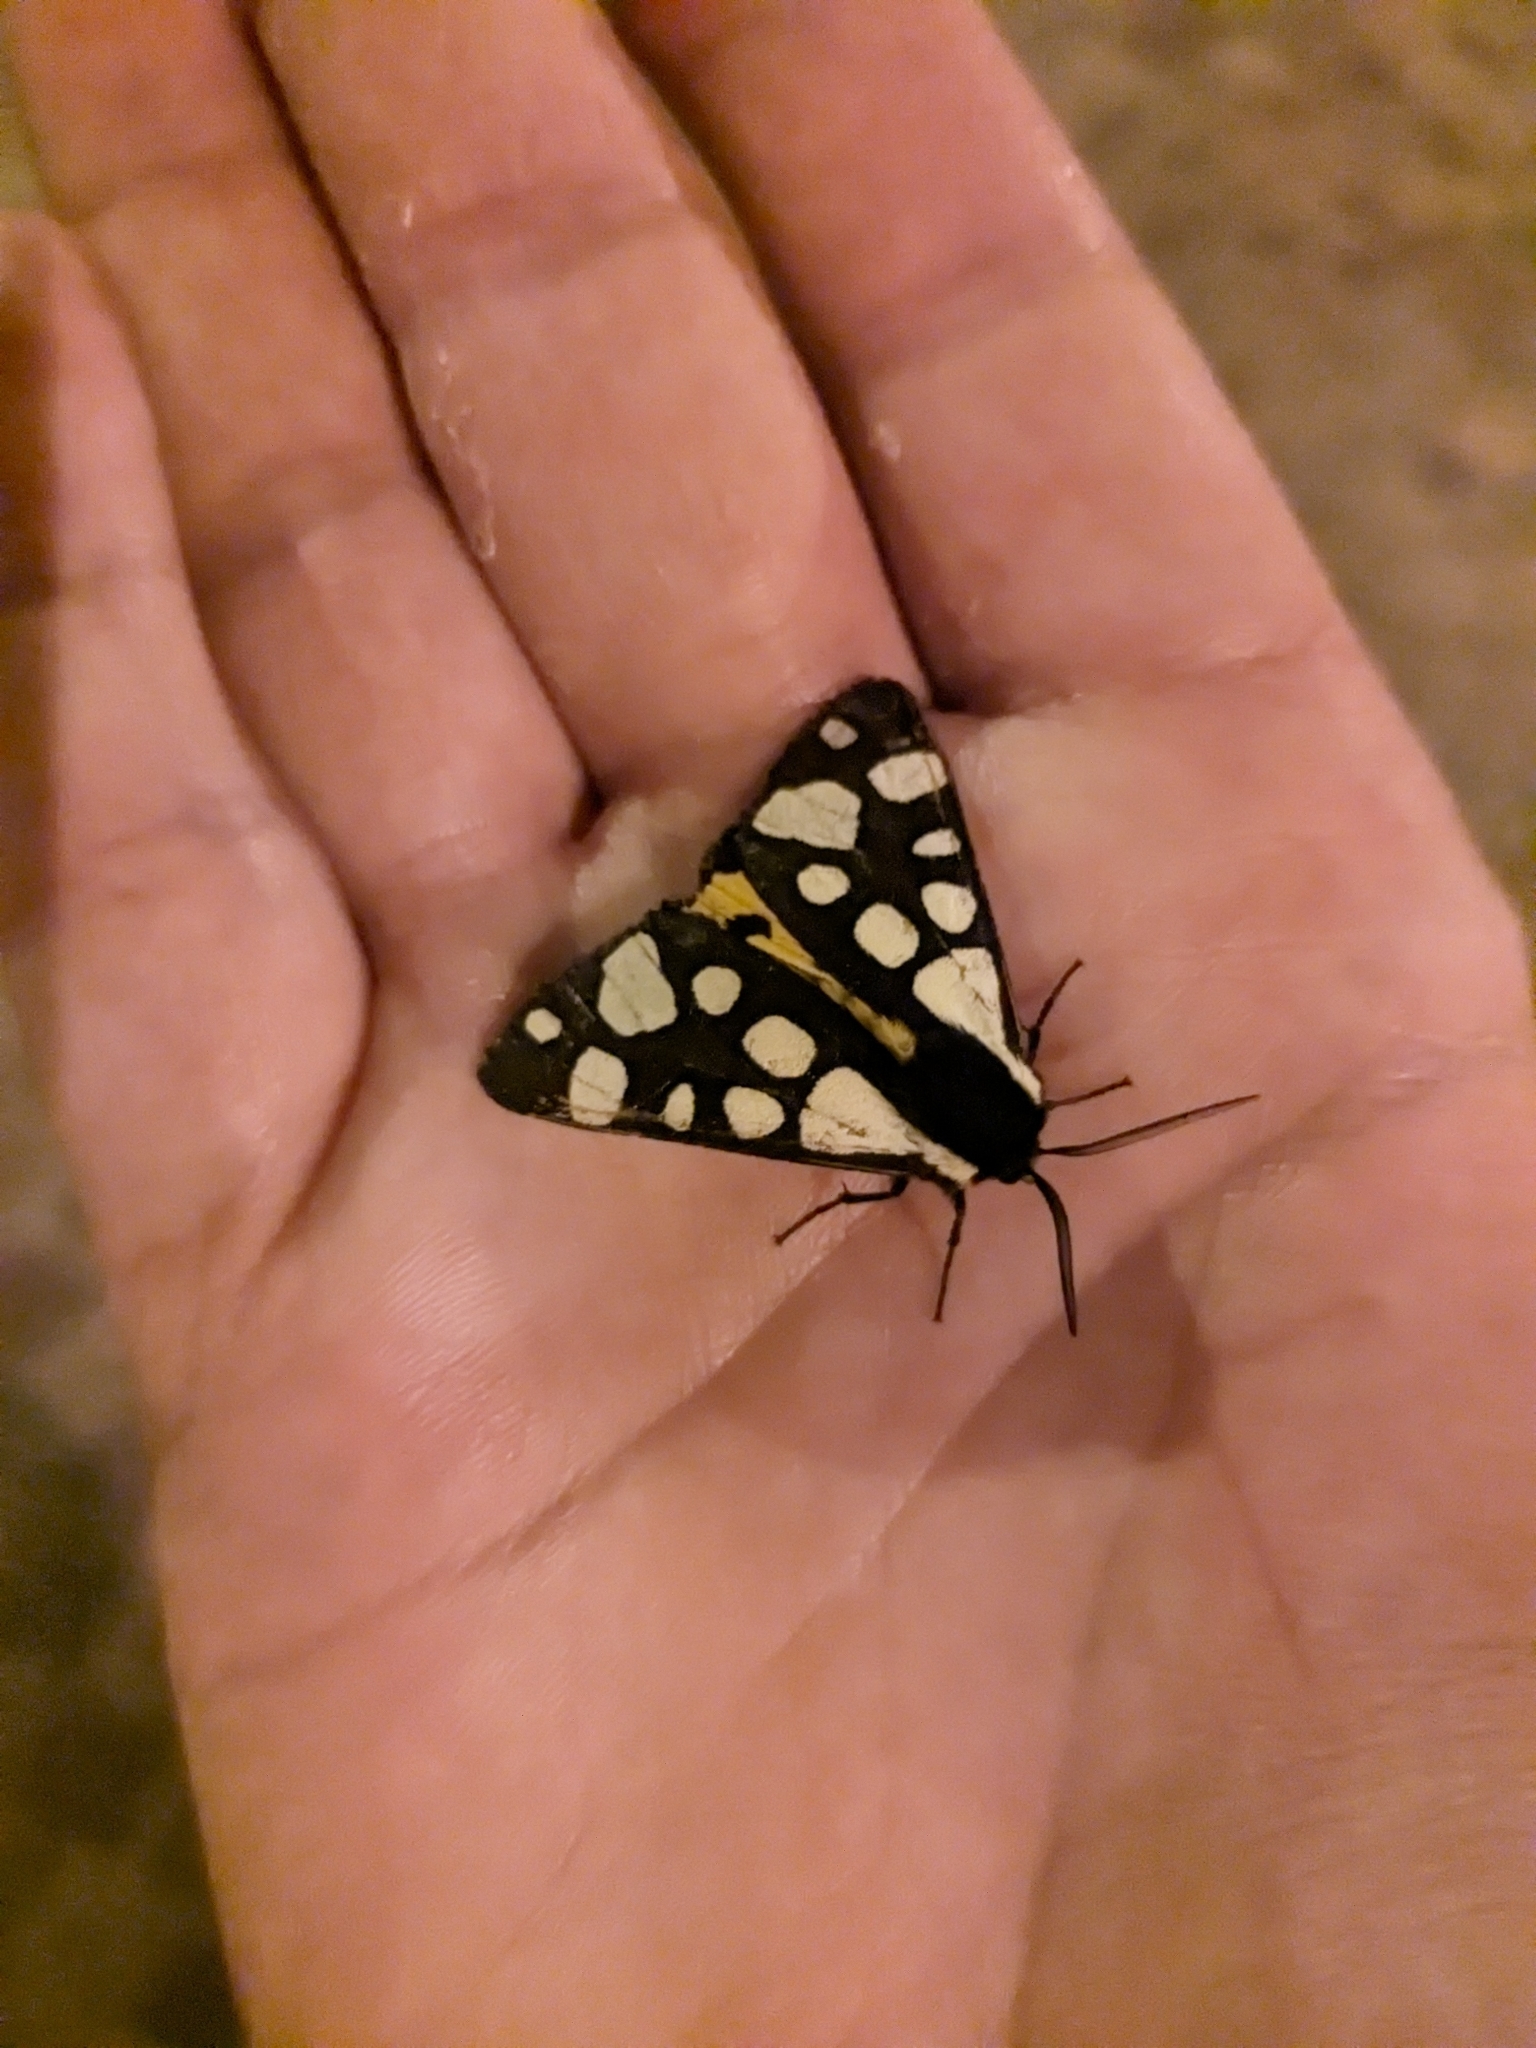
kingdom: Animalia
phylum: Arthropoda
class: Insecta
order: Lepidoptera
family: Erebidae
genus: Epicallia
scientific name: Epicallia villica
